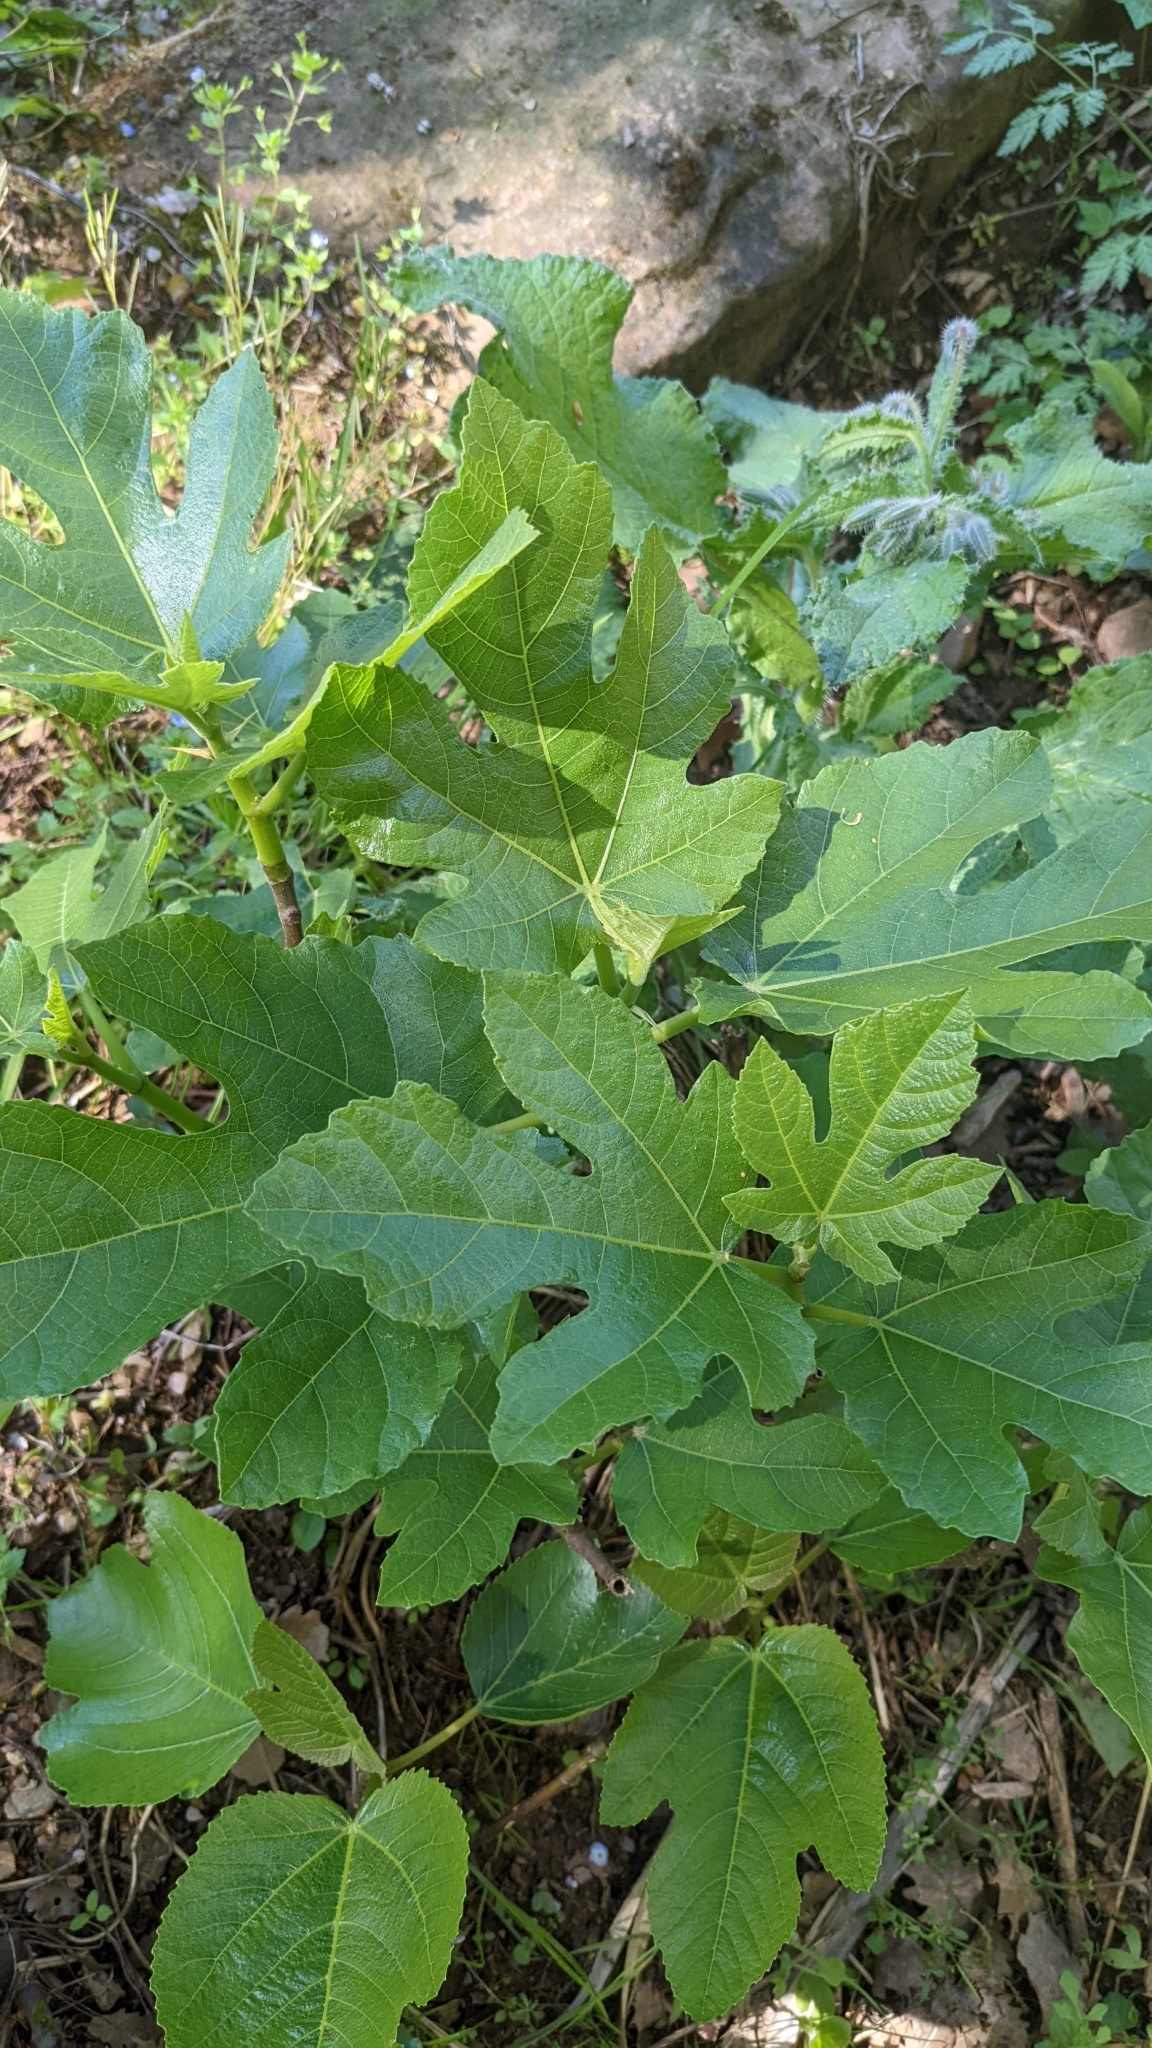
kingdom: Plantae
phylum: Tracheophyta
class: Magnoliopsida
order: Rosales
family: Moraceae
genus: Ficus
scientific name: Ficus carica
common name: Fig
